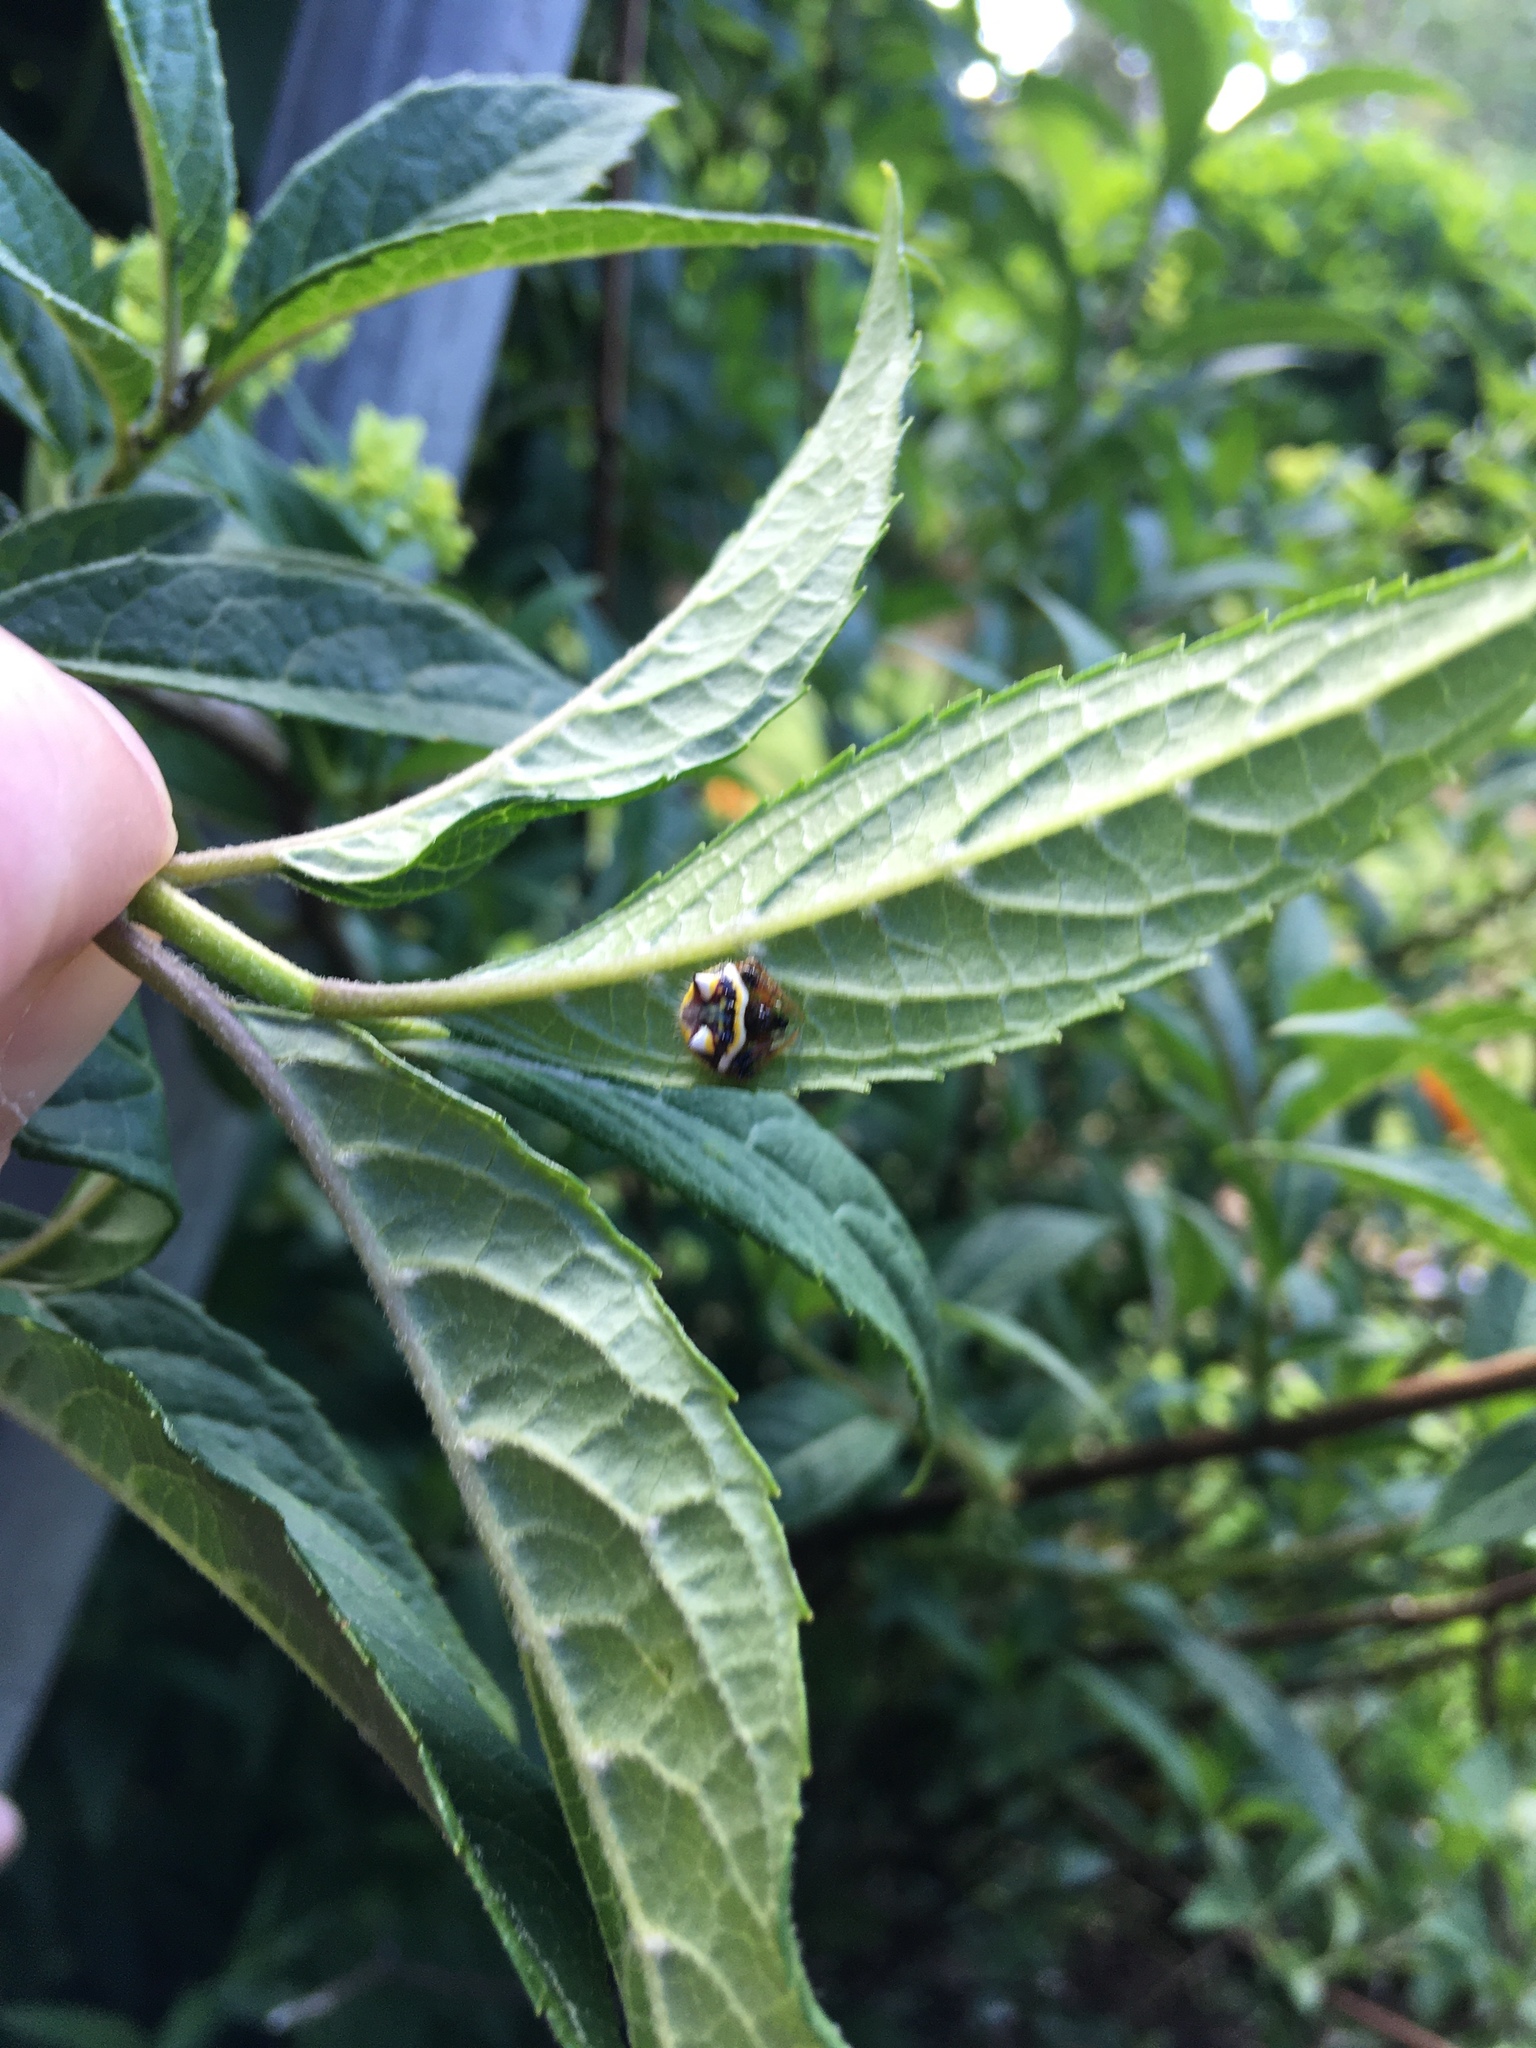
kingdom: Animalia
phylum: Arthropoda
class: Arachnida
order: Araneae
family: Araneidae
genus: Poecilopachys
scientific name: Poecilopachys australasia
